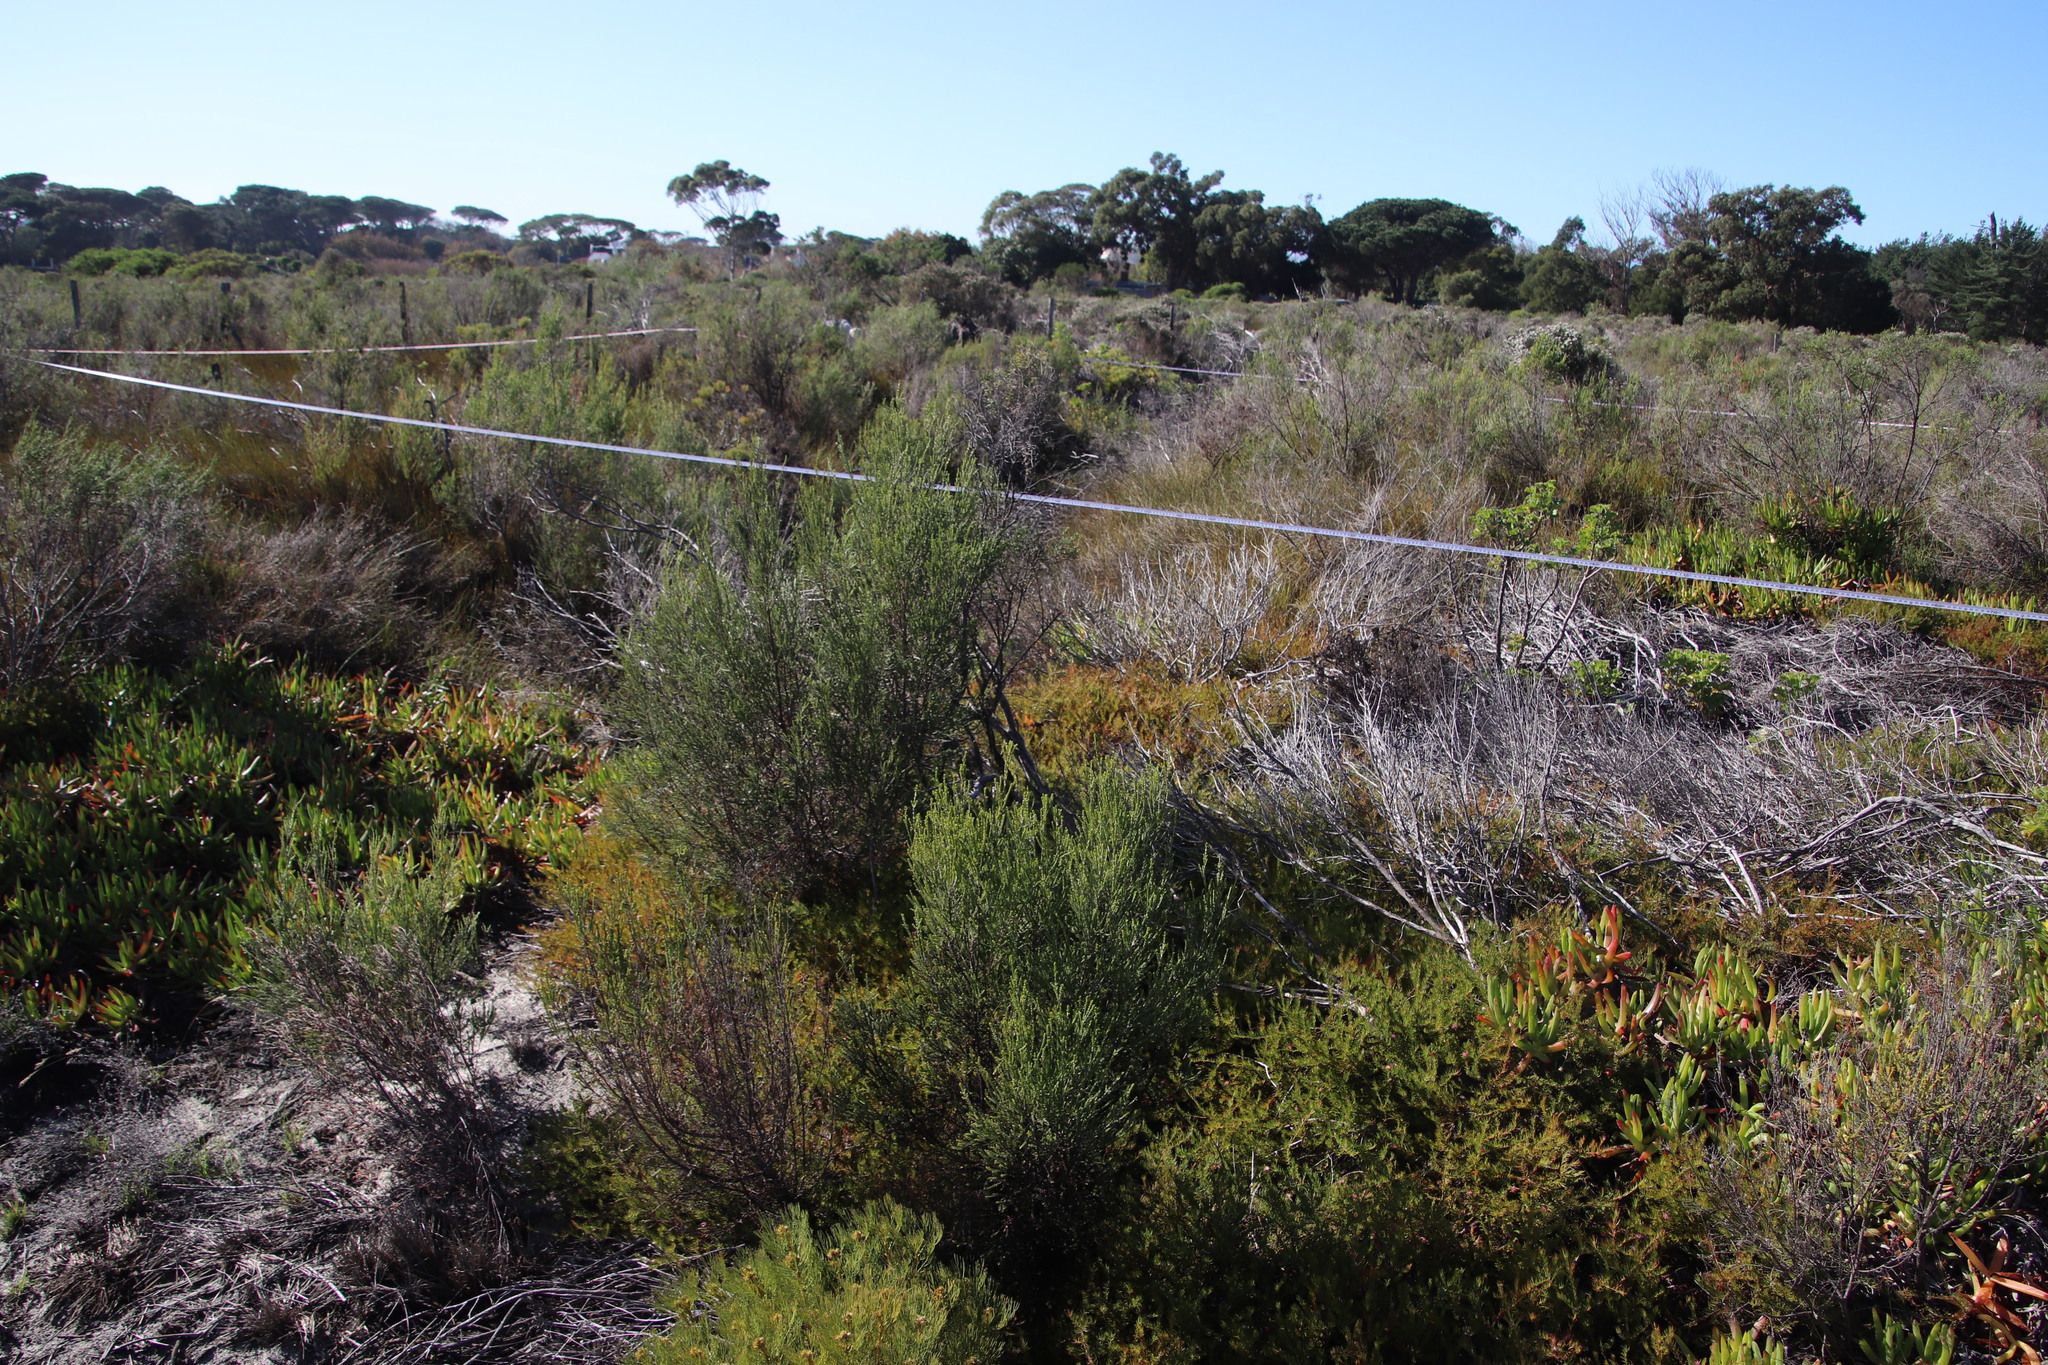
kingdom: Plantae
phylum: Tracheophyta
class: Magnoliopsida
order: Malvales
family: Thymelaeaceae
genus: Passerina
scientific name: Passerina corymbosa
